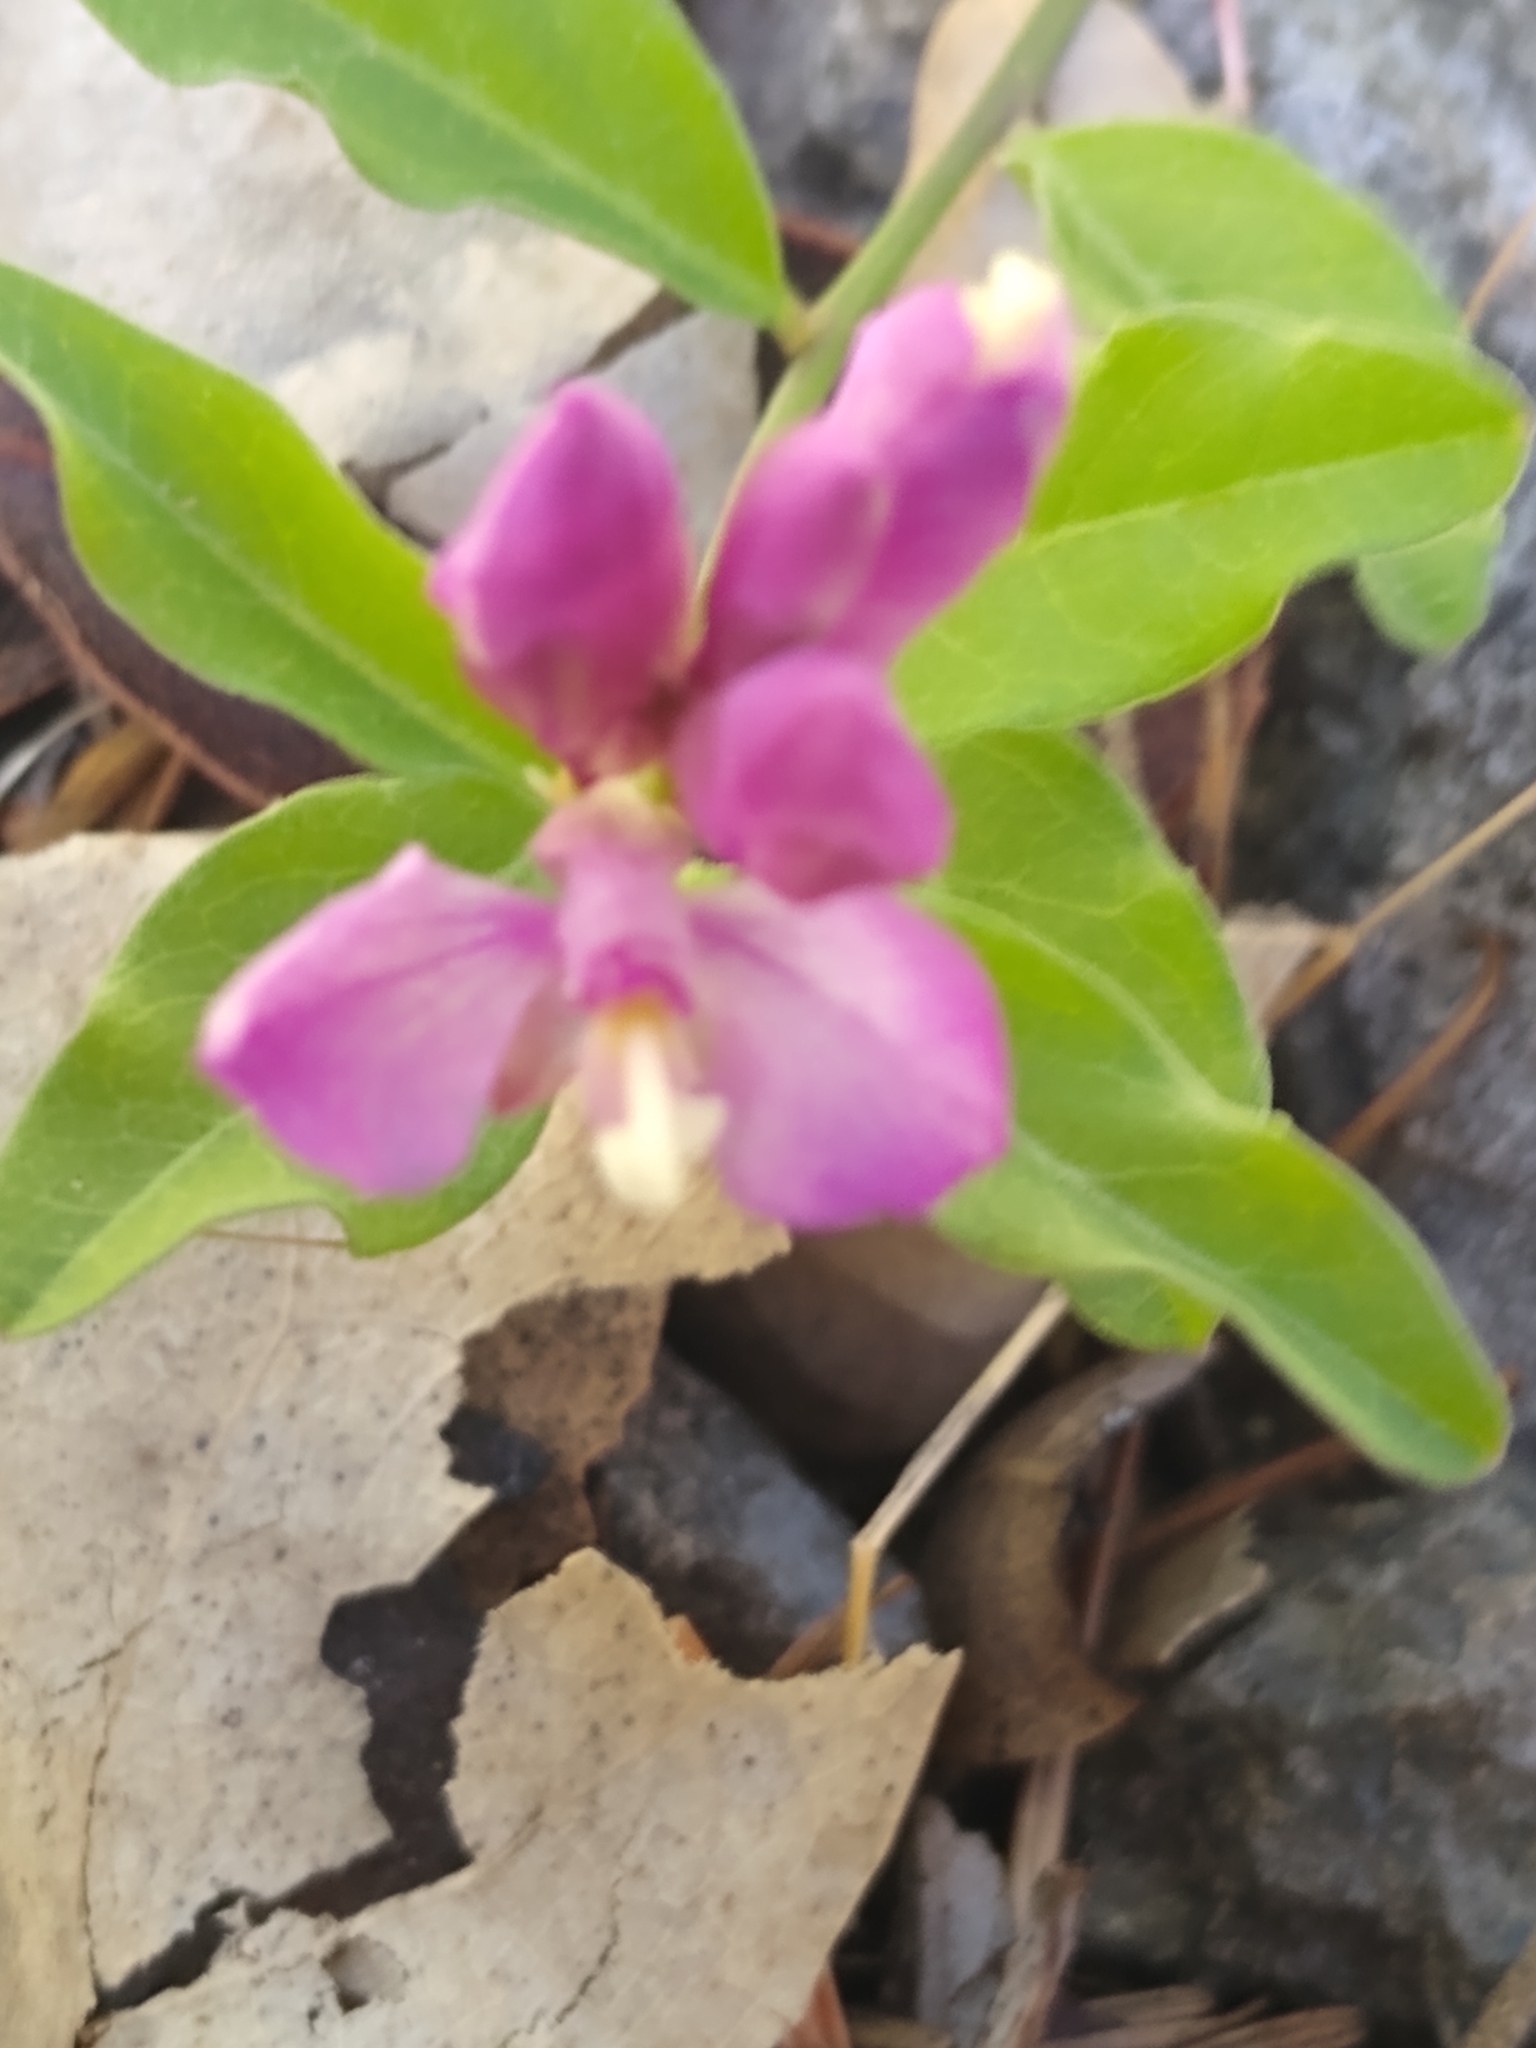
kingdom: Plantae
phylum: Tracheophyta
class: Magnoliopsida
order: Fabales
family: Polygalaceae
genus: Rhinotropis
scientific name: Rhinotropis californica
